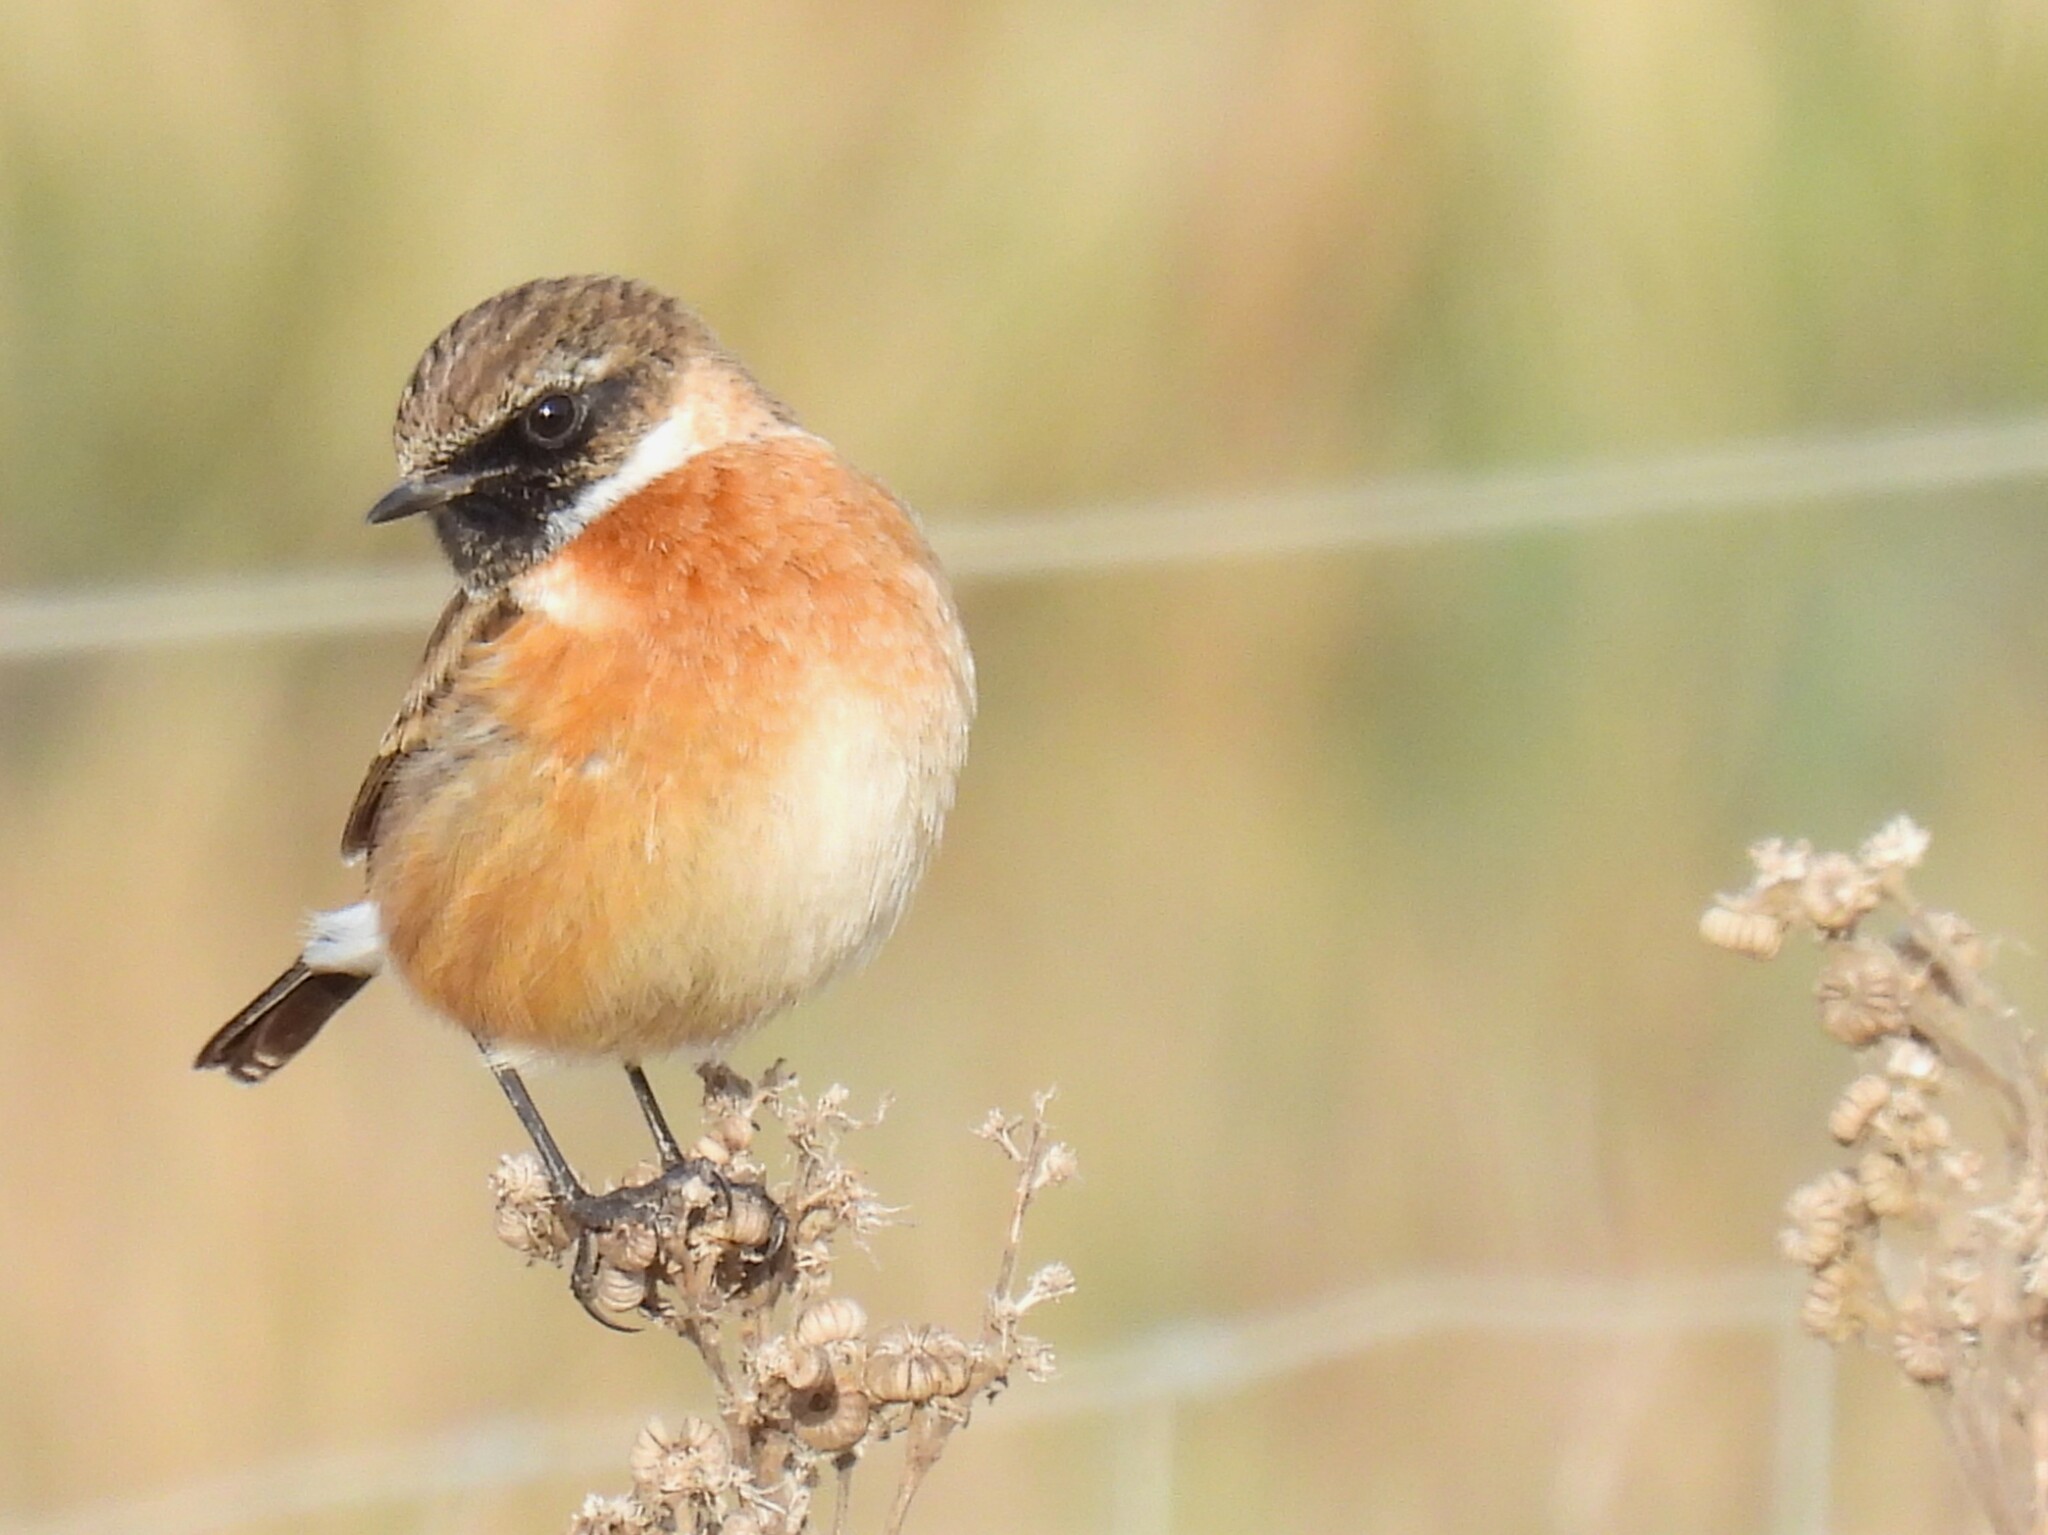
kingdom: Animalia
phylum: Chordata
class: Aves
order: Passeriformes
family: Muscicapidae
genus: Saxicola
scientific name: Saxicola rubicola
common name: European stonechat
